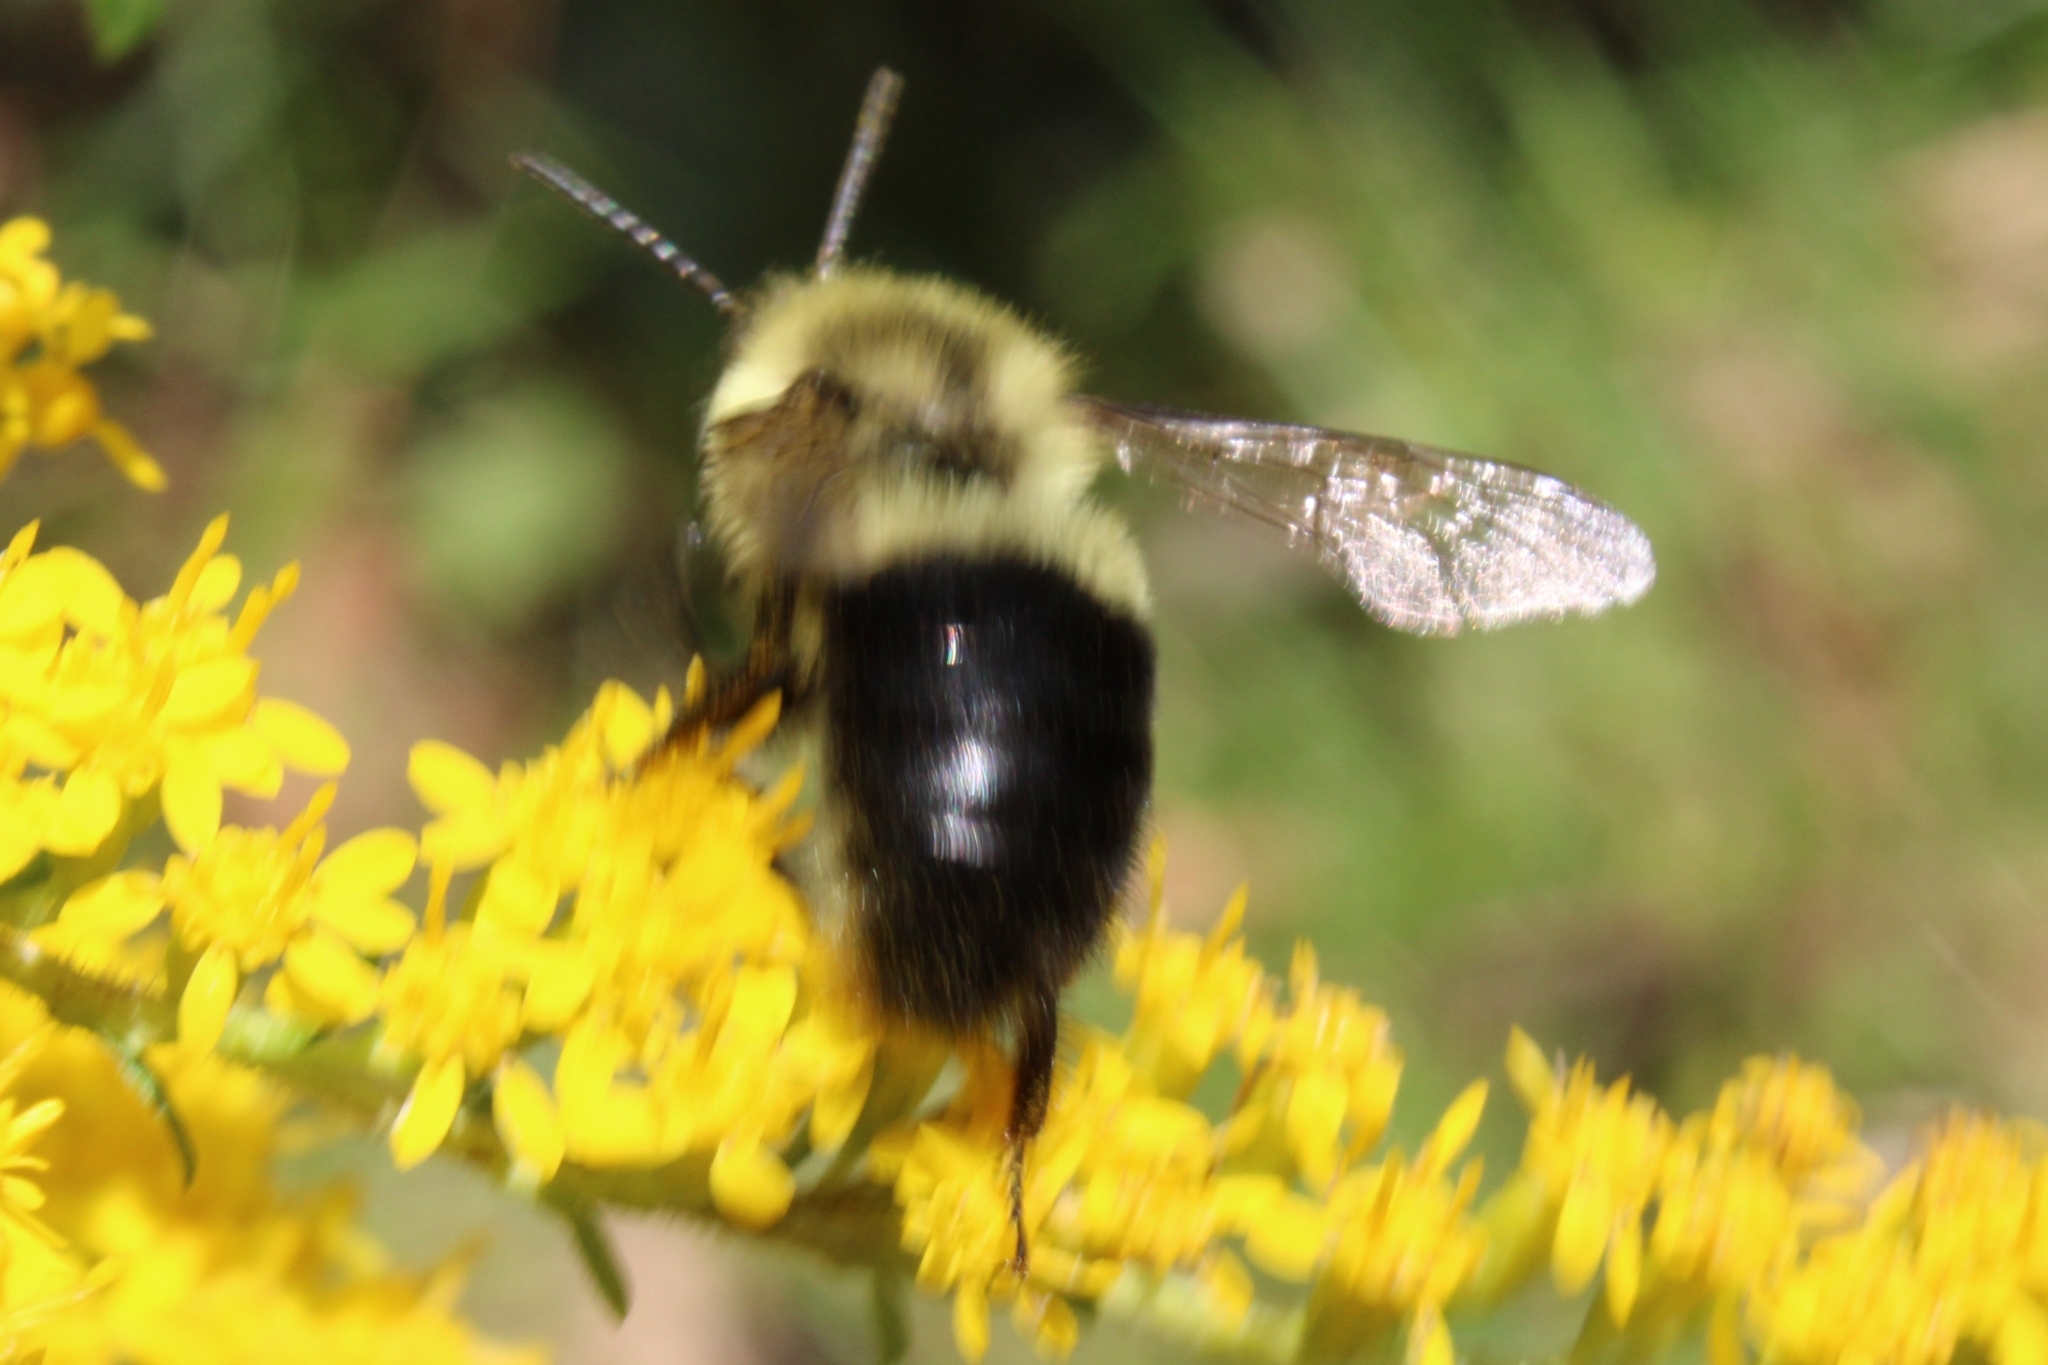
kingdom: Animalia
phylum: Arthropoda
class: Insecta
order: Hymenoptera
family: Apidae
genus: Bombus
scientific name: Bombus impatiens
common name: Common eastern bumble bee
